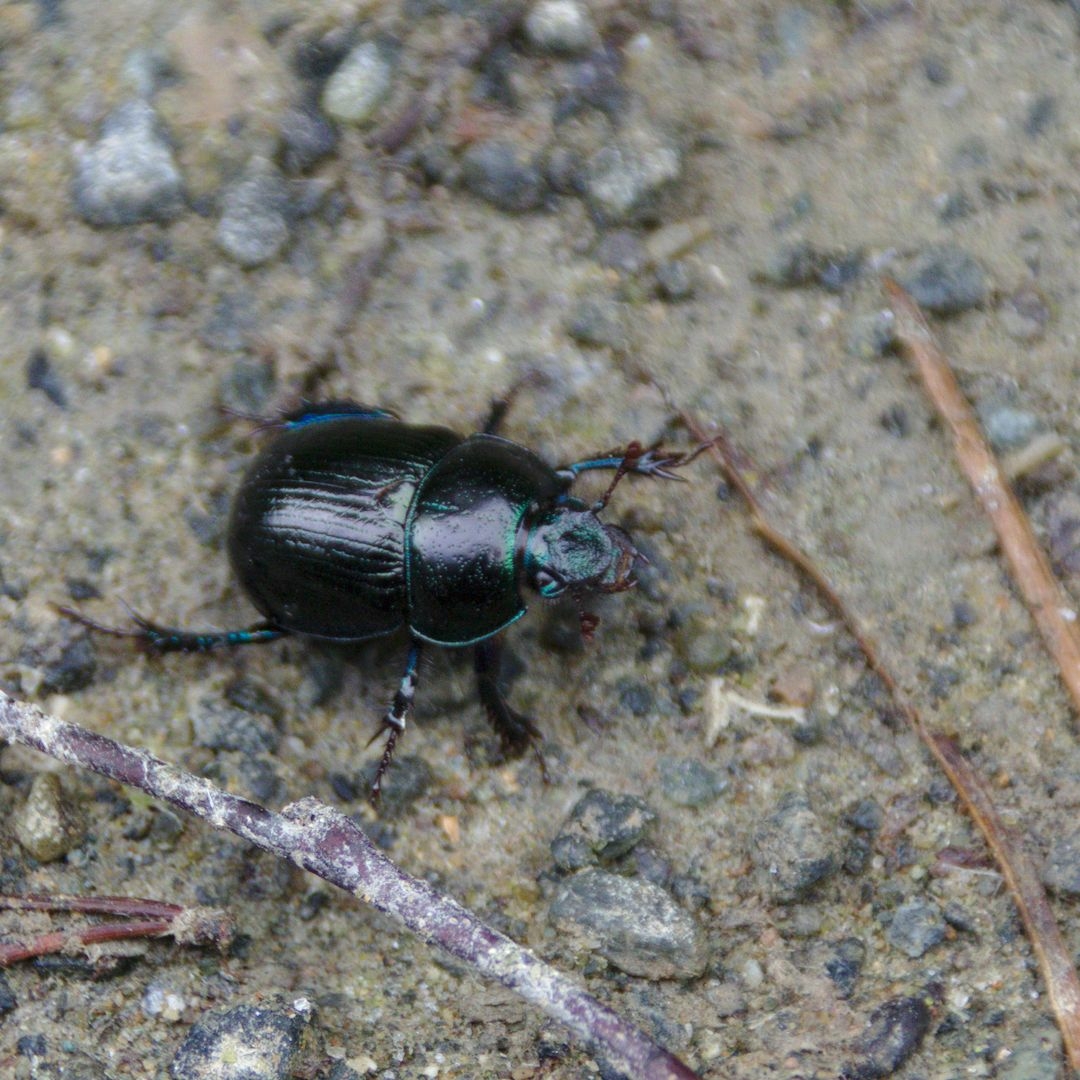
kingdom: Animalia
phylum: Arthropoda
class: Insecta
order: Coleoptera
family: Geotrupidae
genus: Anoplotrupes
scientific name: Anoplotrupes stercorosus
